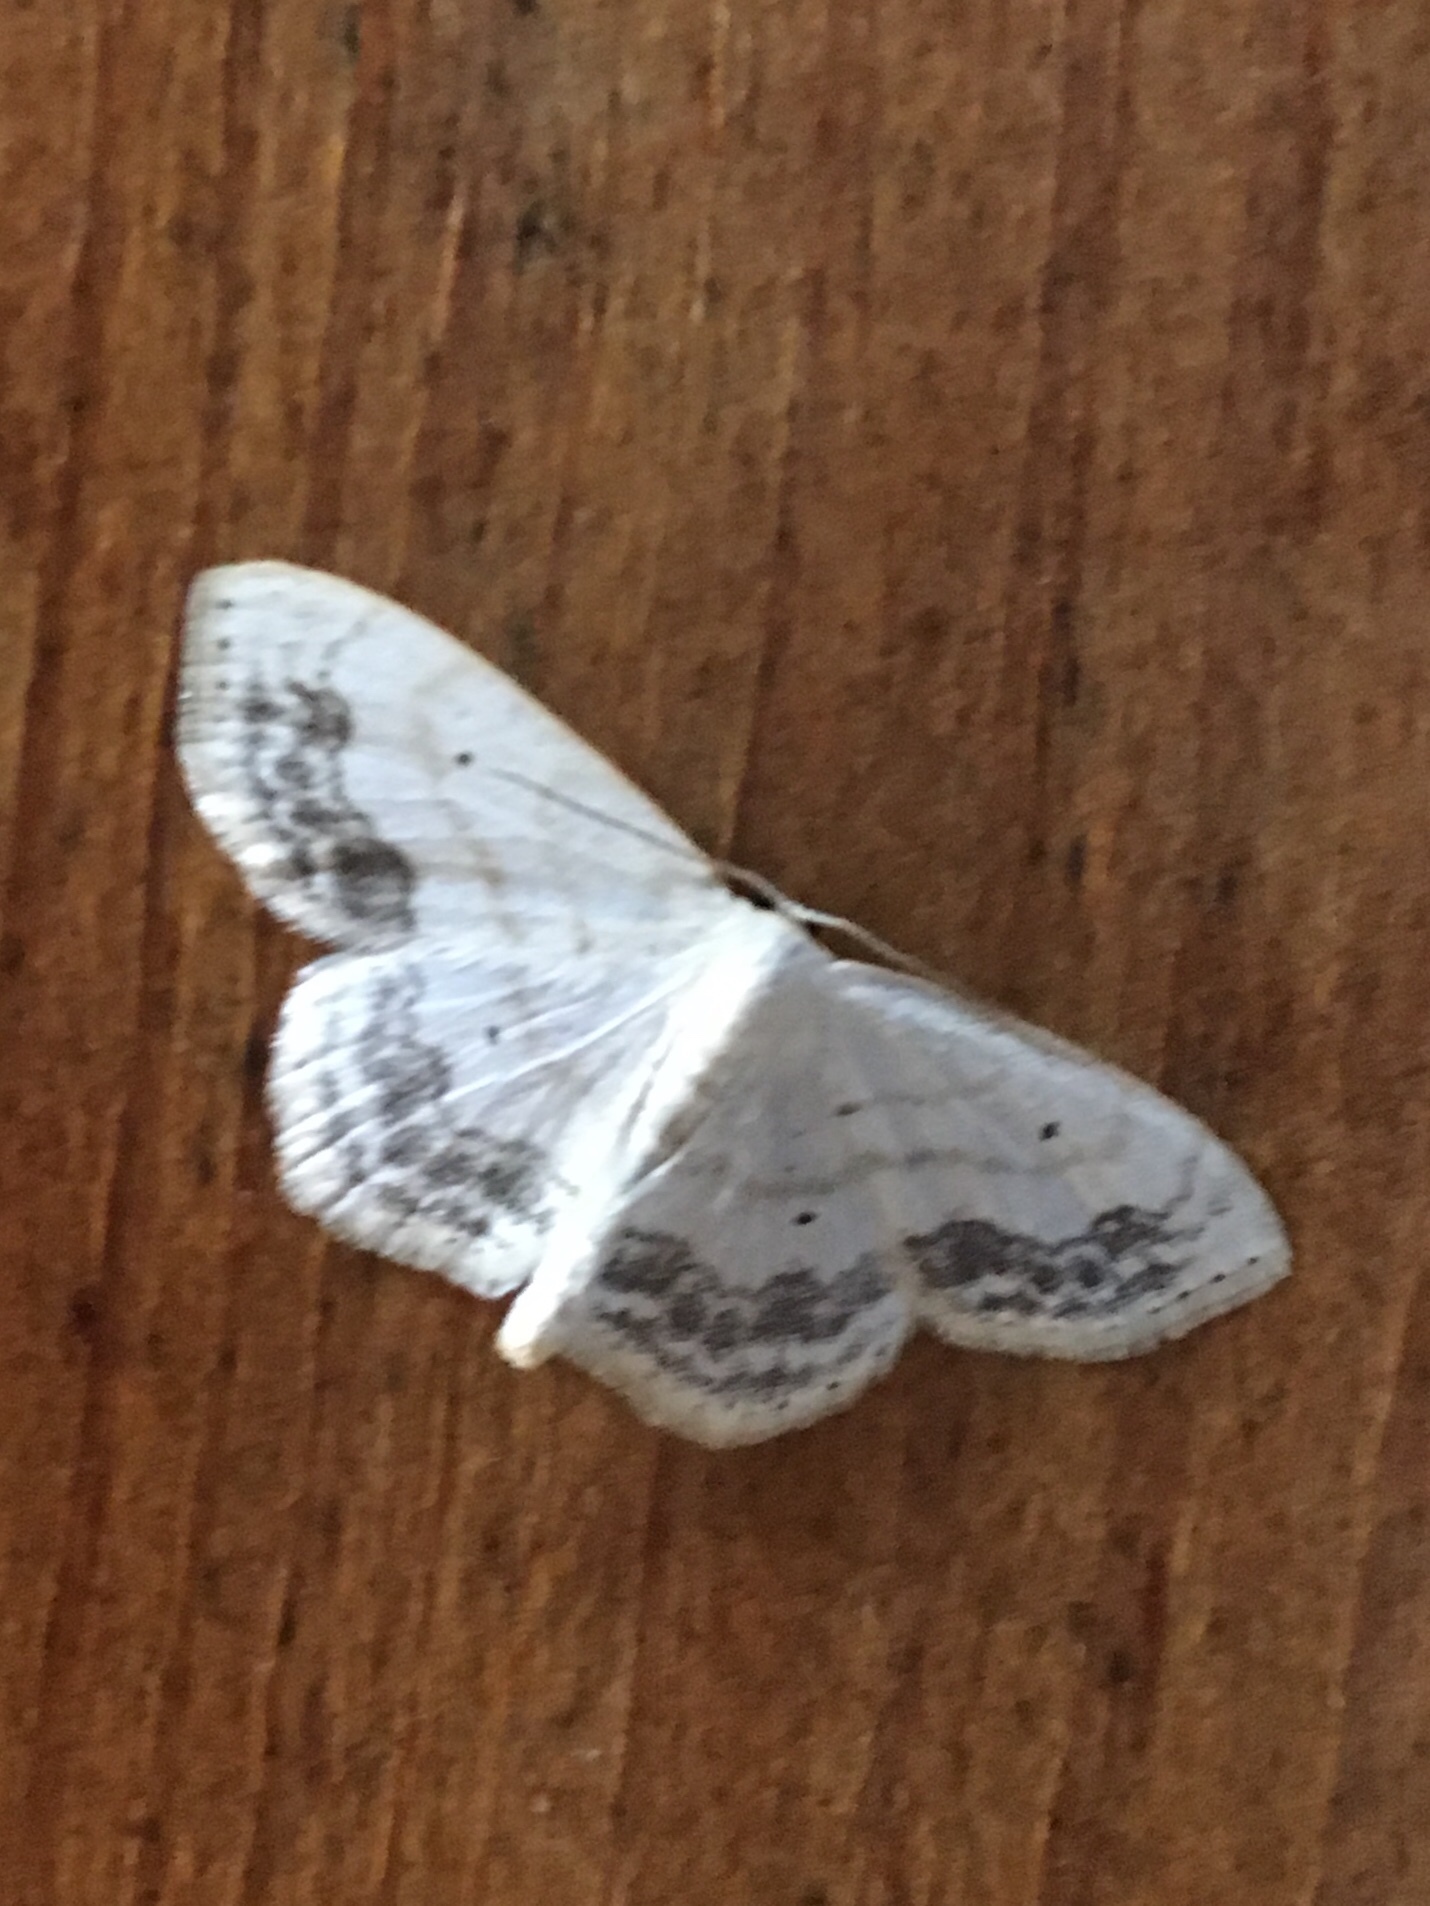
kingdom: Animalia
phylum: Arthropoda
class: Insecta
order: Lepidoptera
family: Geometridae
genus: Scopula
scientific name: Scopula limboundata
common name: Large lace border
